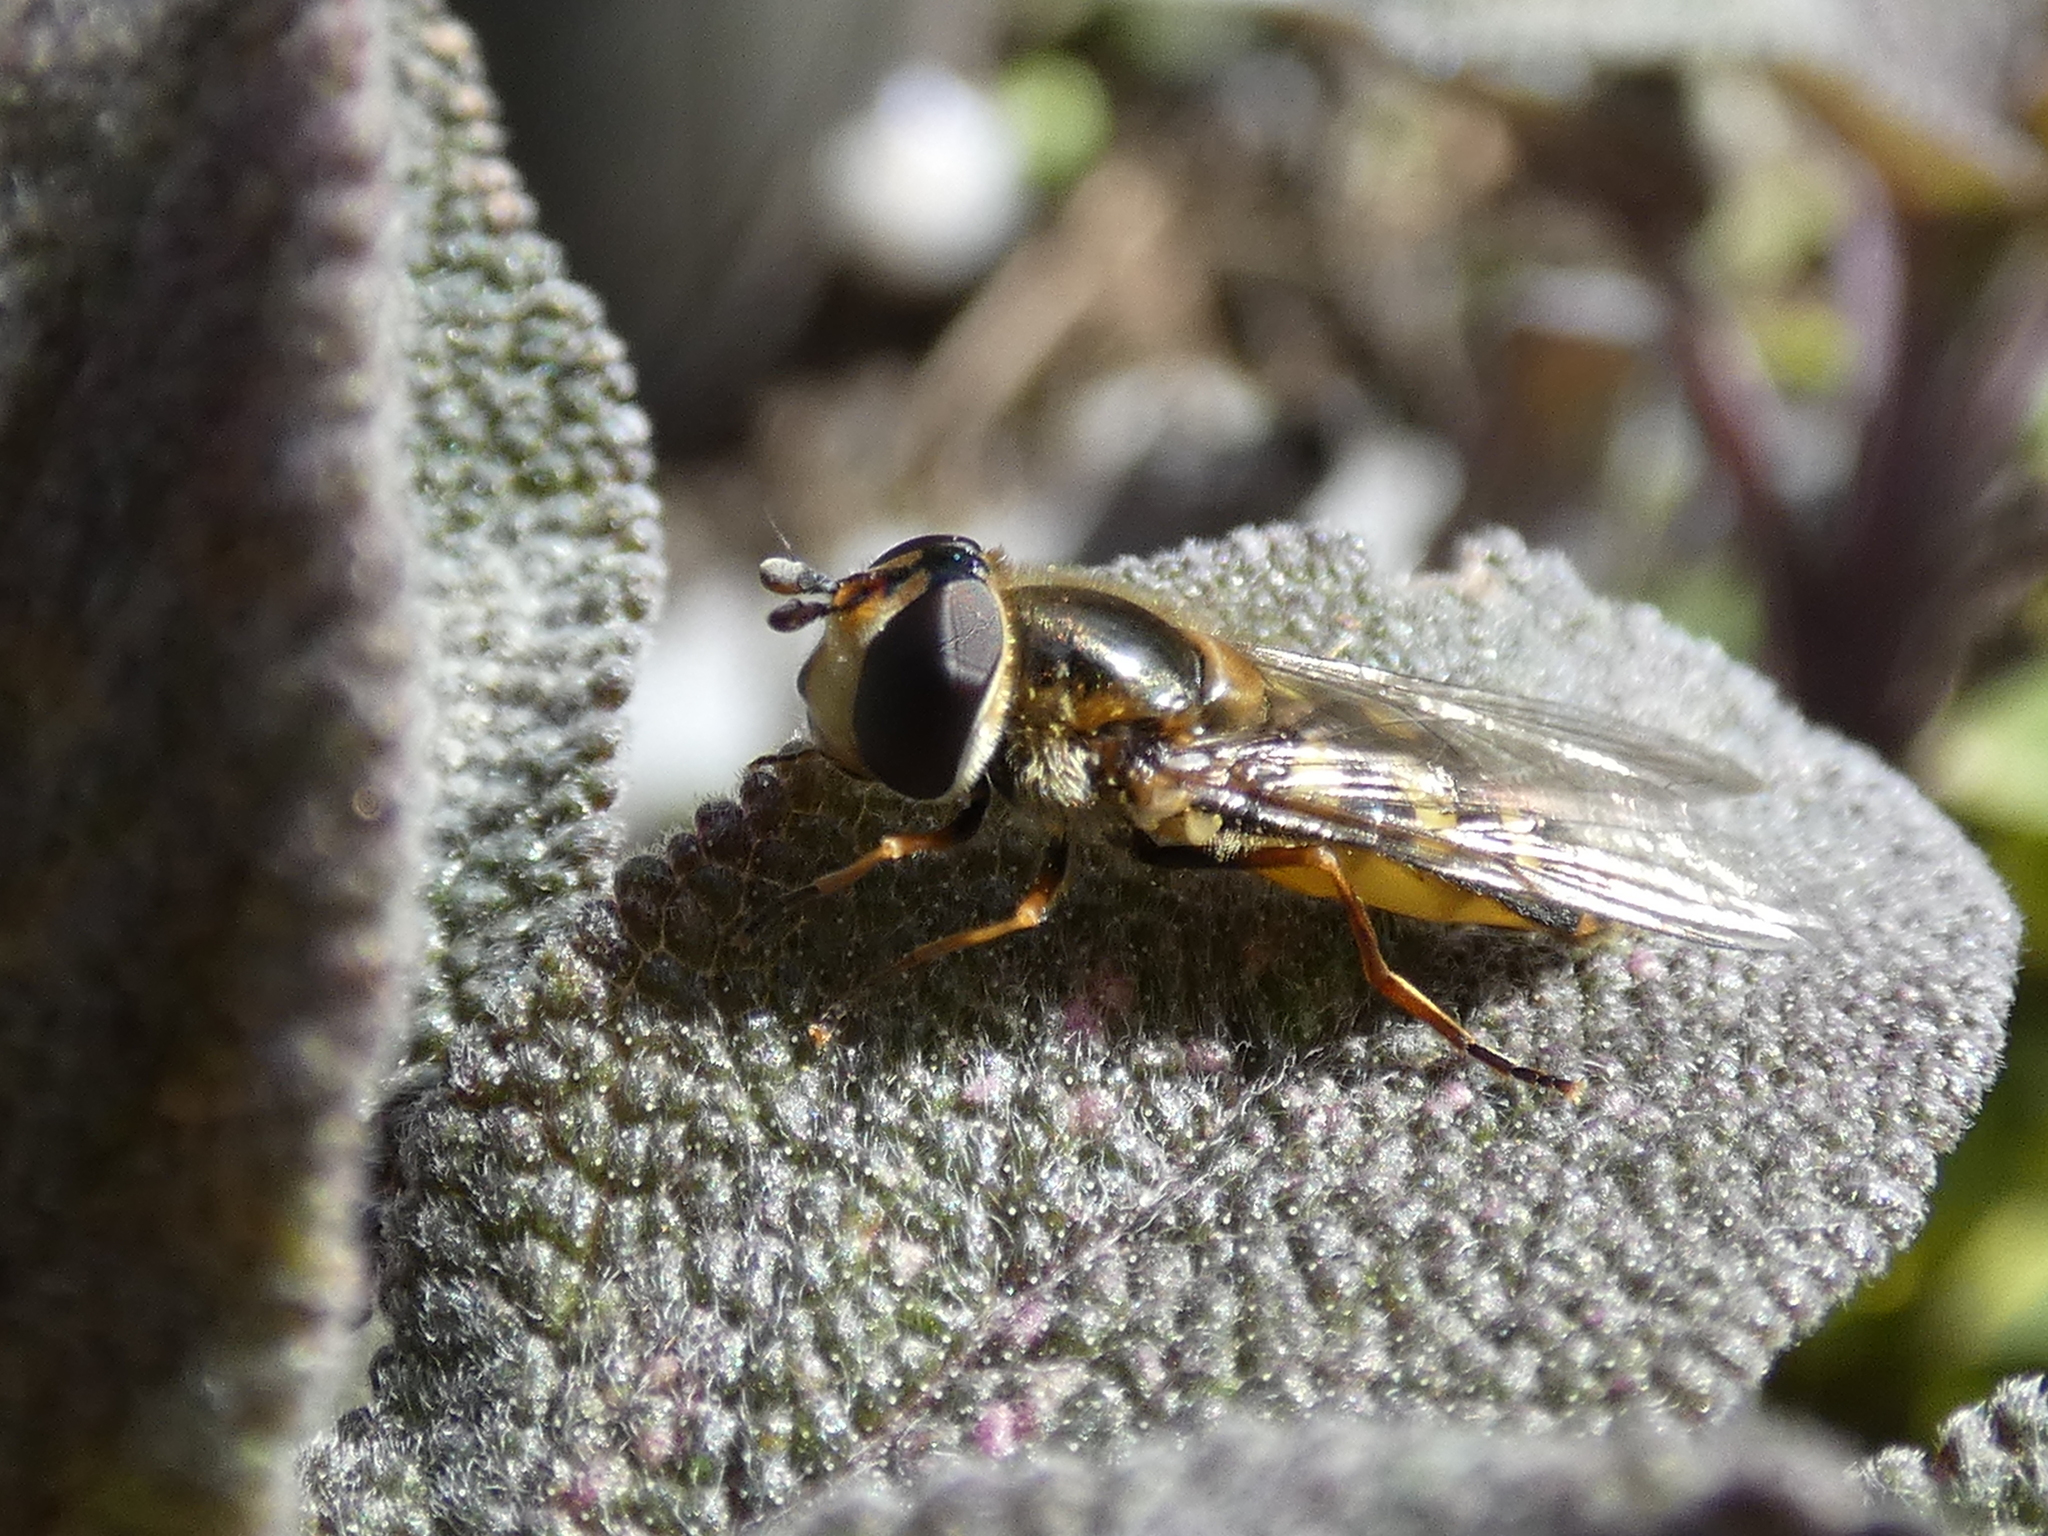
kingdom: Animalia
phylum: Arthropoda
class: Insecta
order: Diptera
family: Syrphidae
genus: Eupeodes
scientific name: Eupeodes luniger
